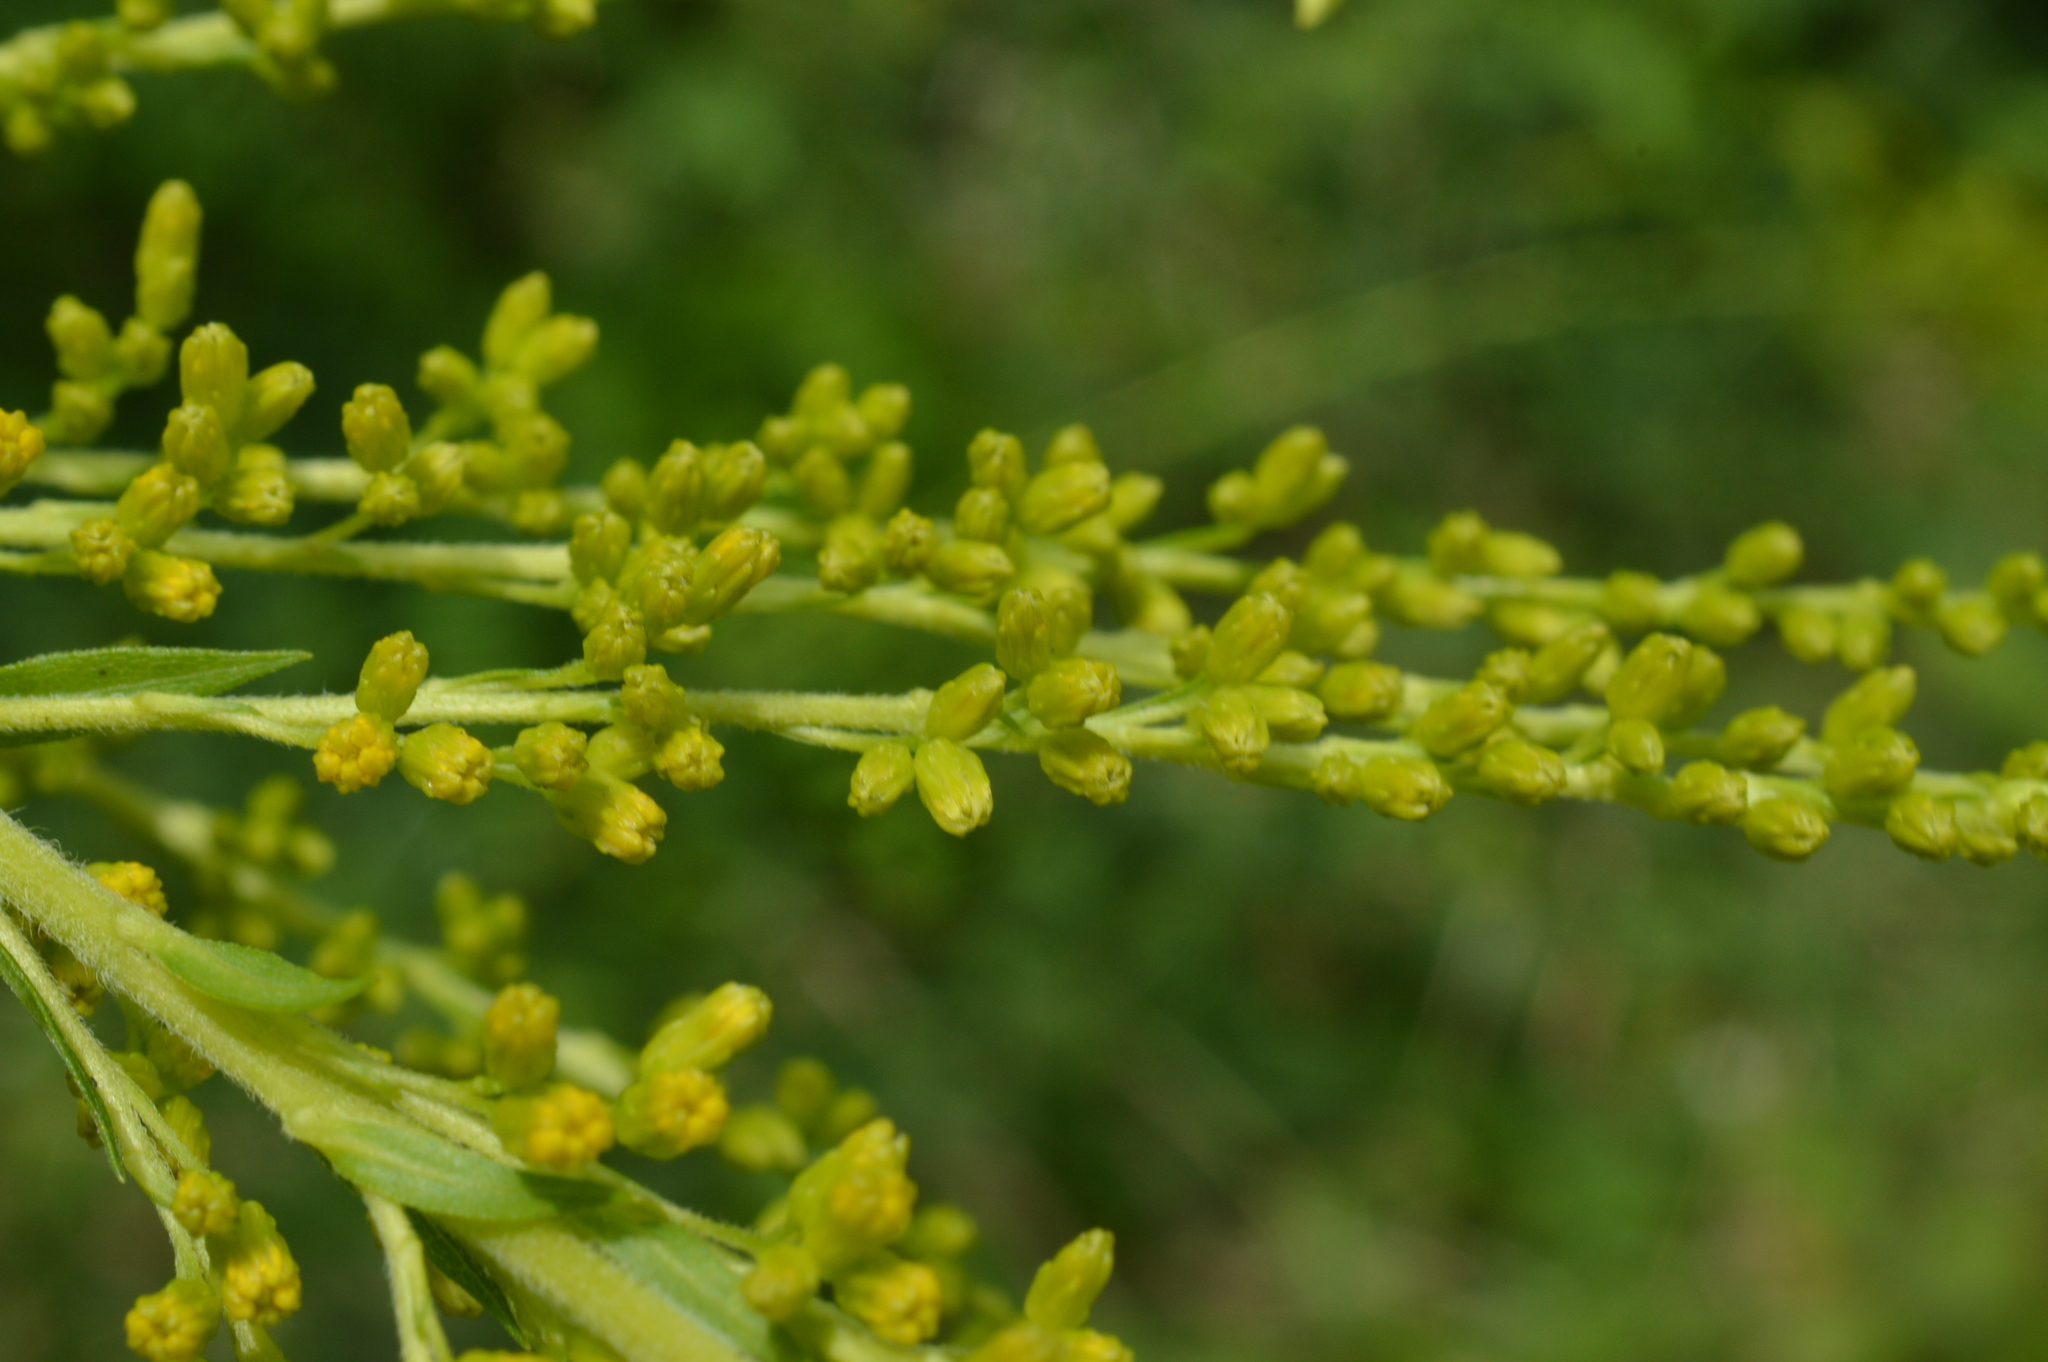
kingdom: Plantae
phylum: Tracheophyta
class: Magnoliopsida
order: Asterales
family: Asteraceae
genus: Solidago
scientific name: Solidago canadensis
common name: Canada goldenrod
